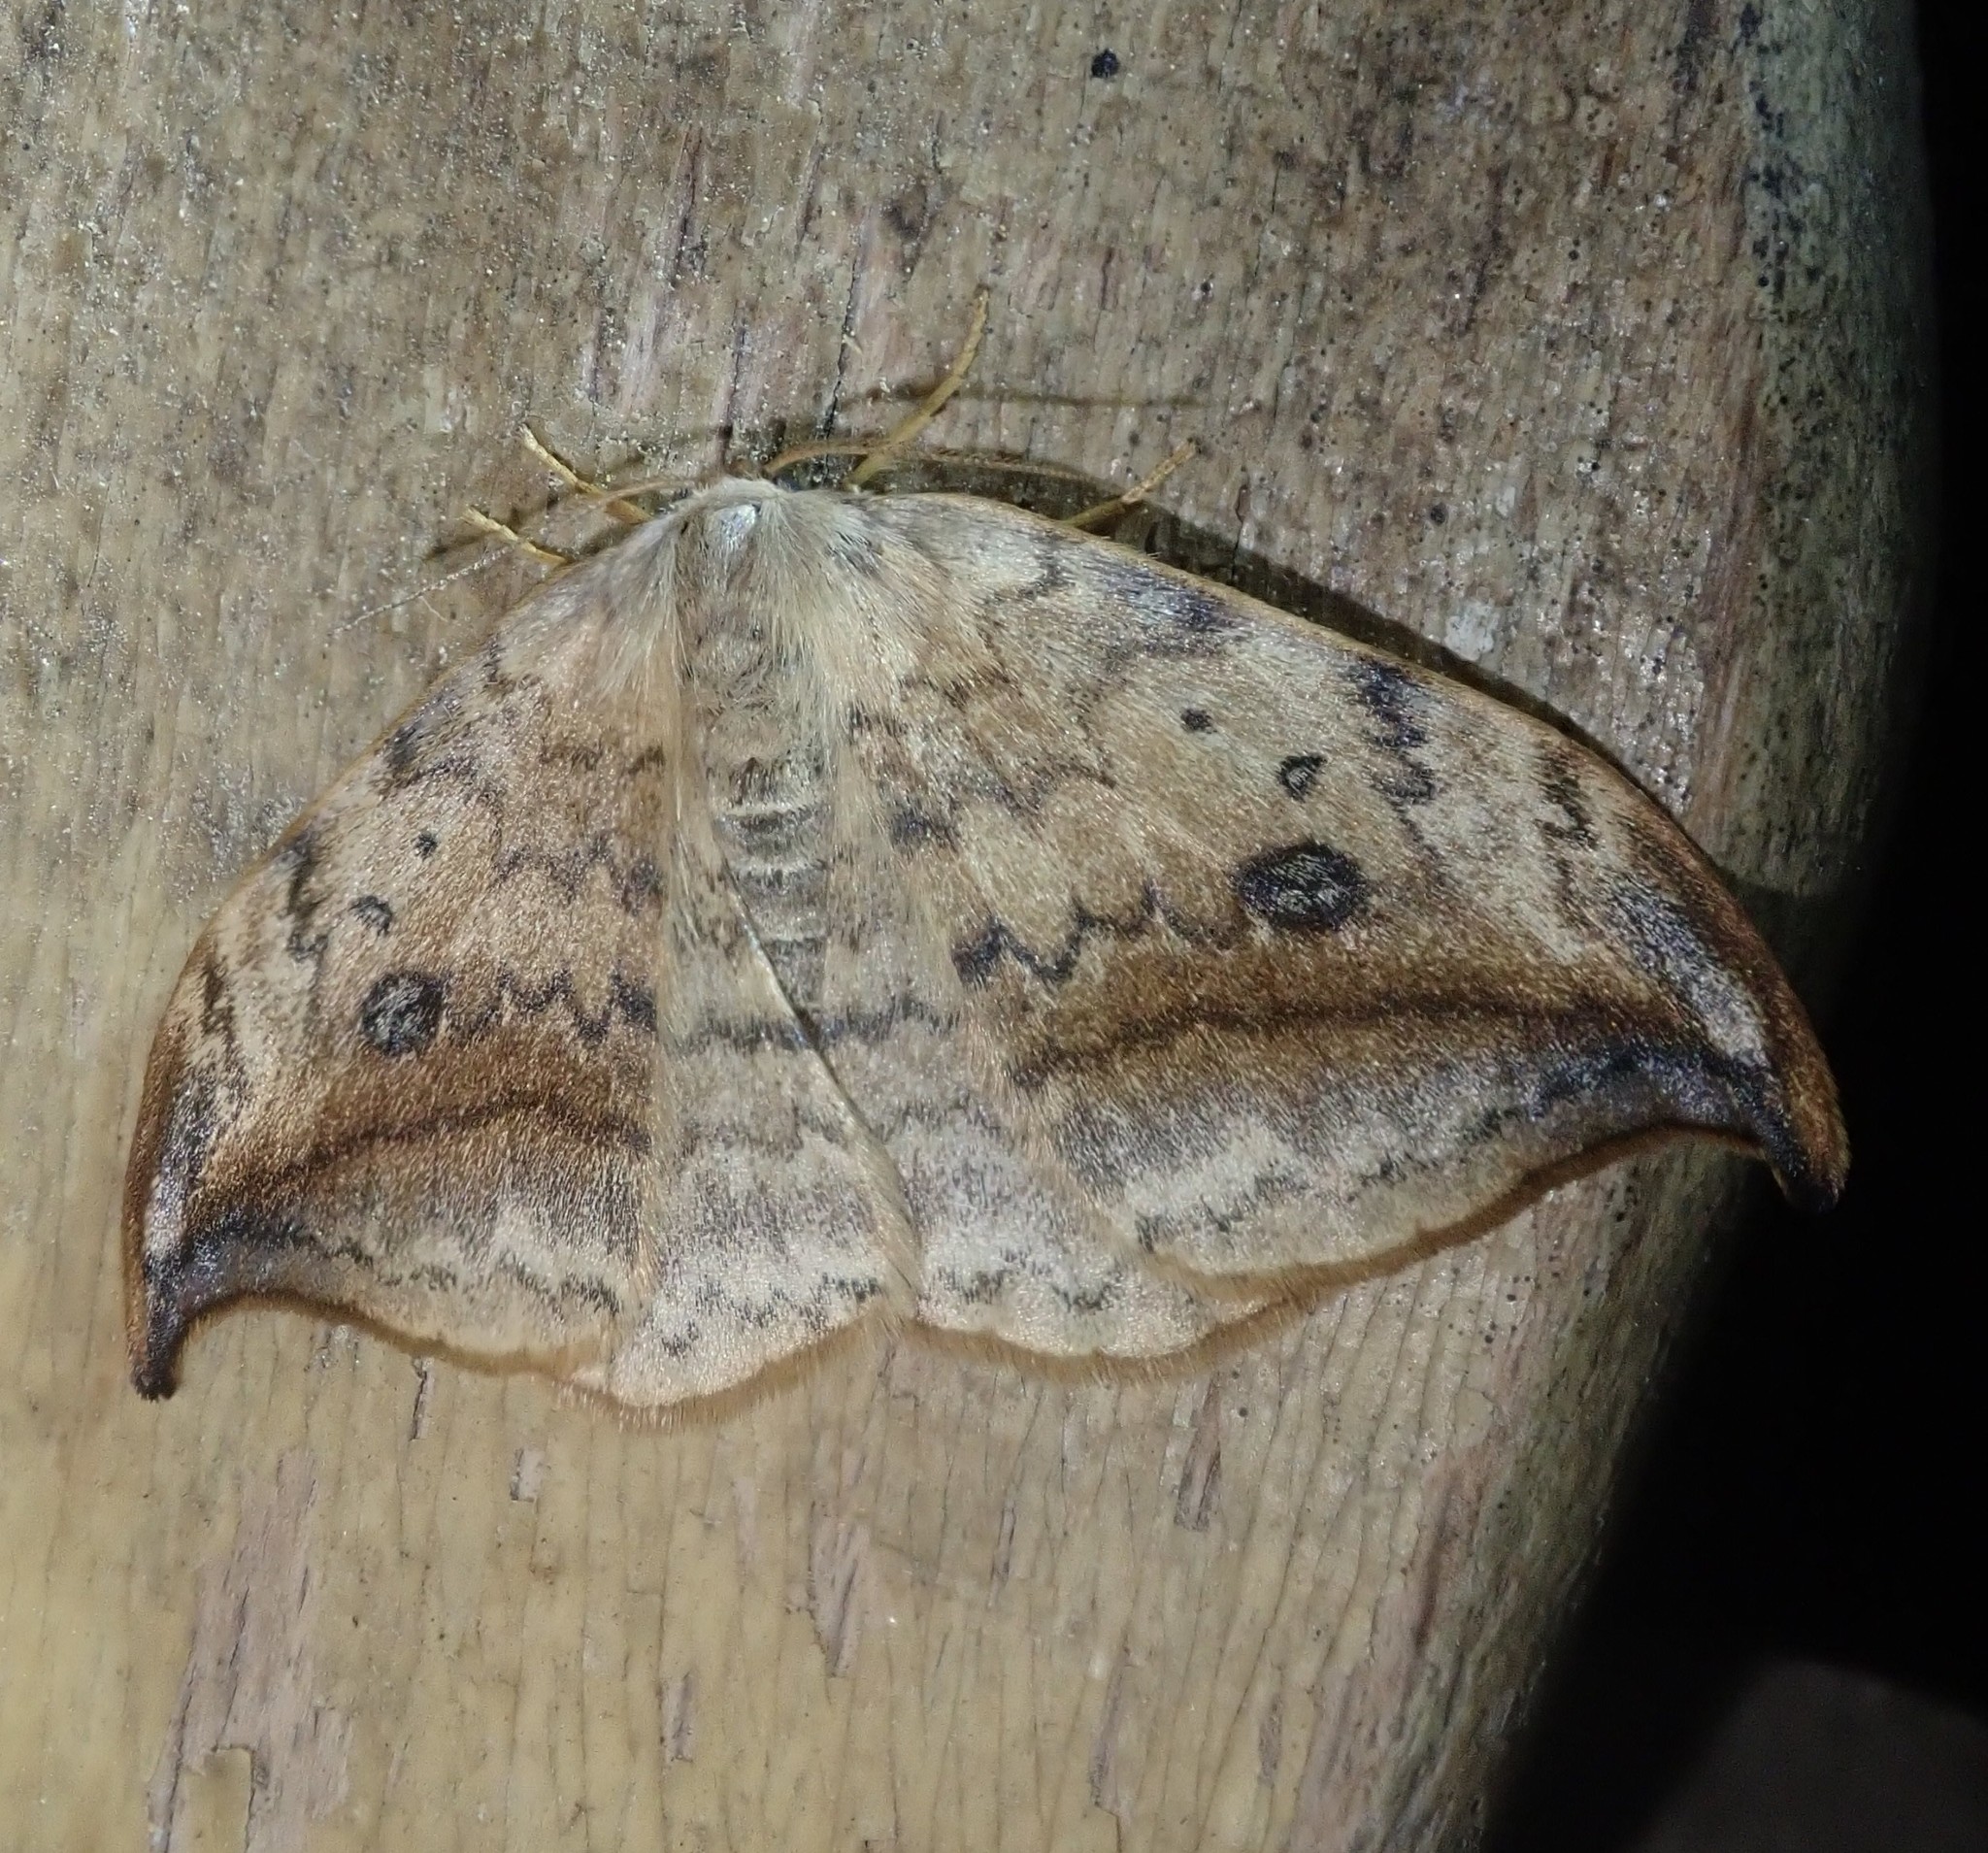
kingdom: Animalia
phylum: Arthropoda
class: Insecta
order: Lepidoptera
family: Drepanidae
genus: Drepana
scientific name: Drepana falcataria
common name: Pebble hook-tip
